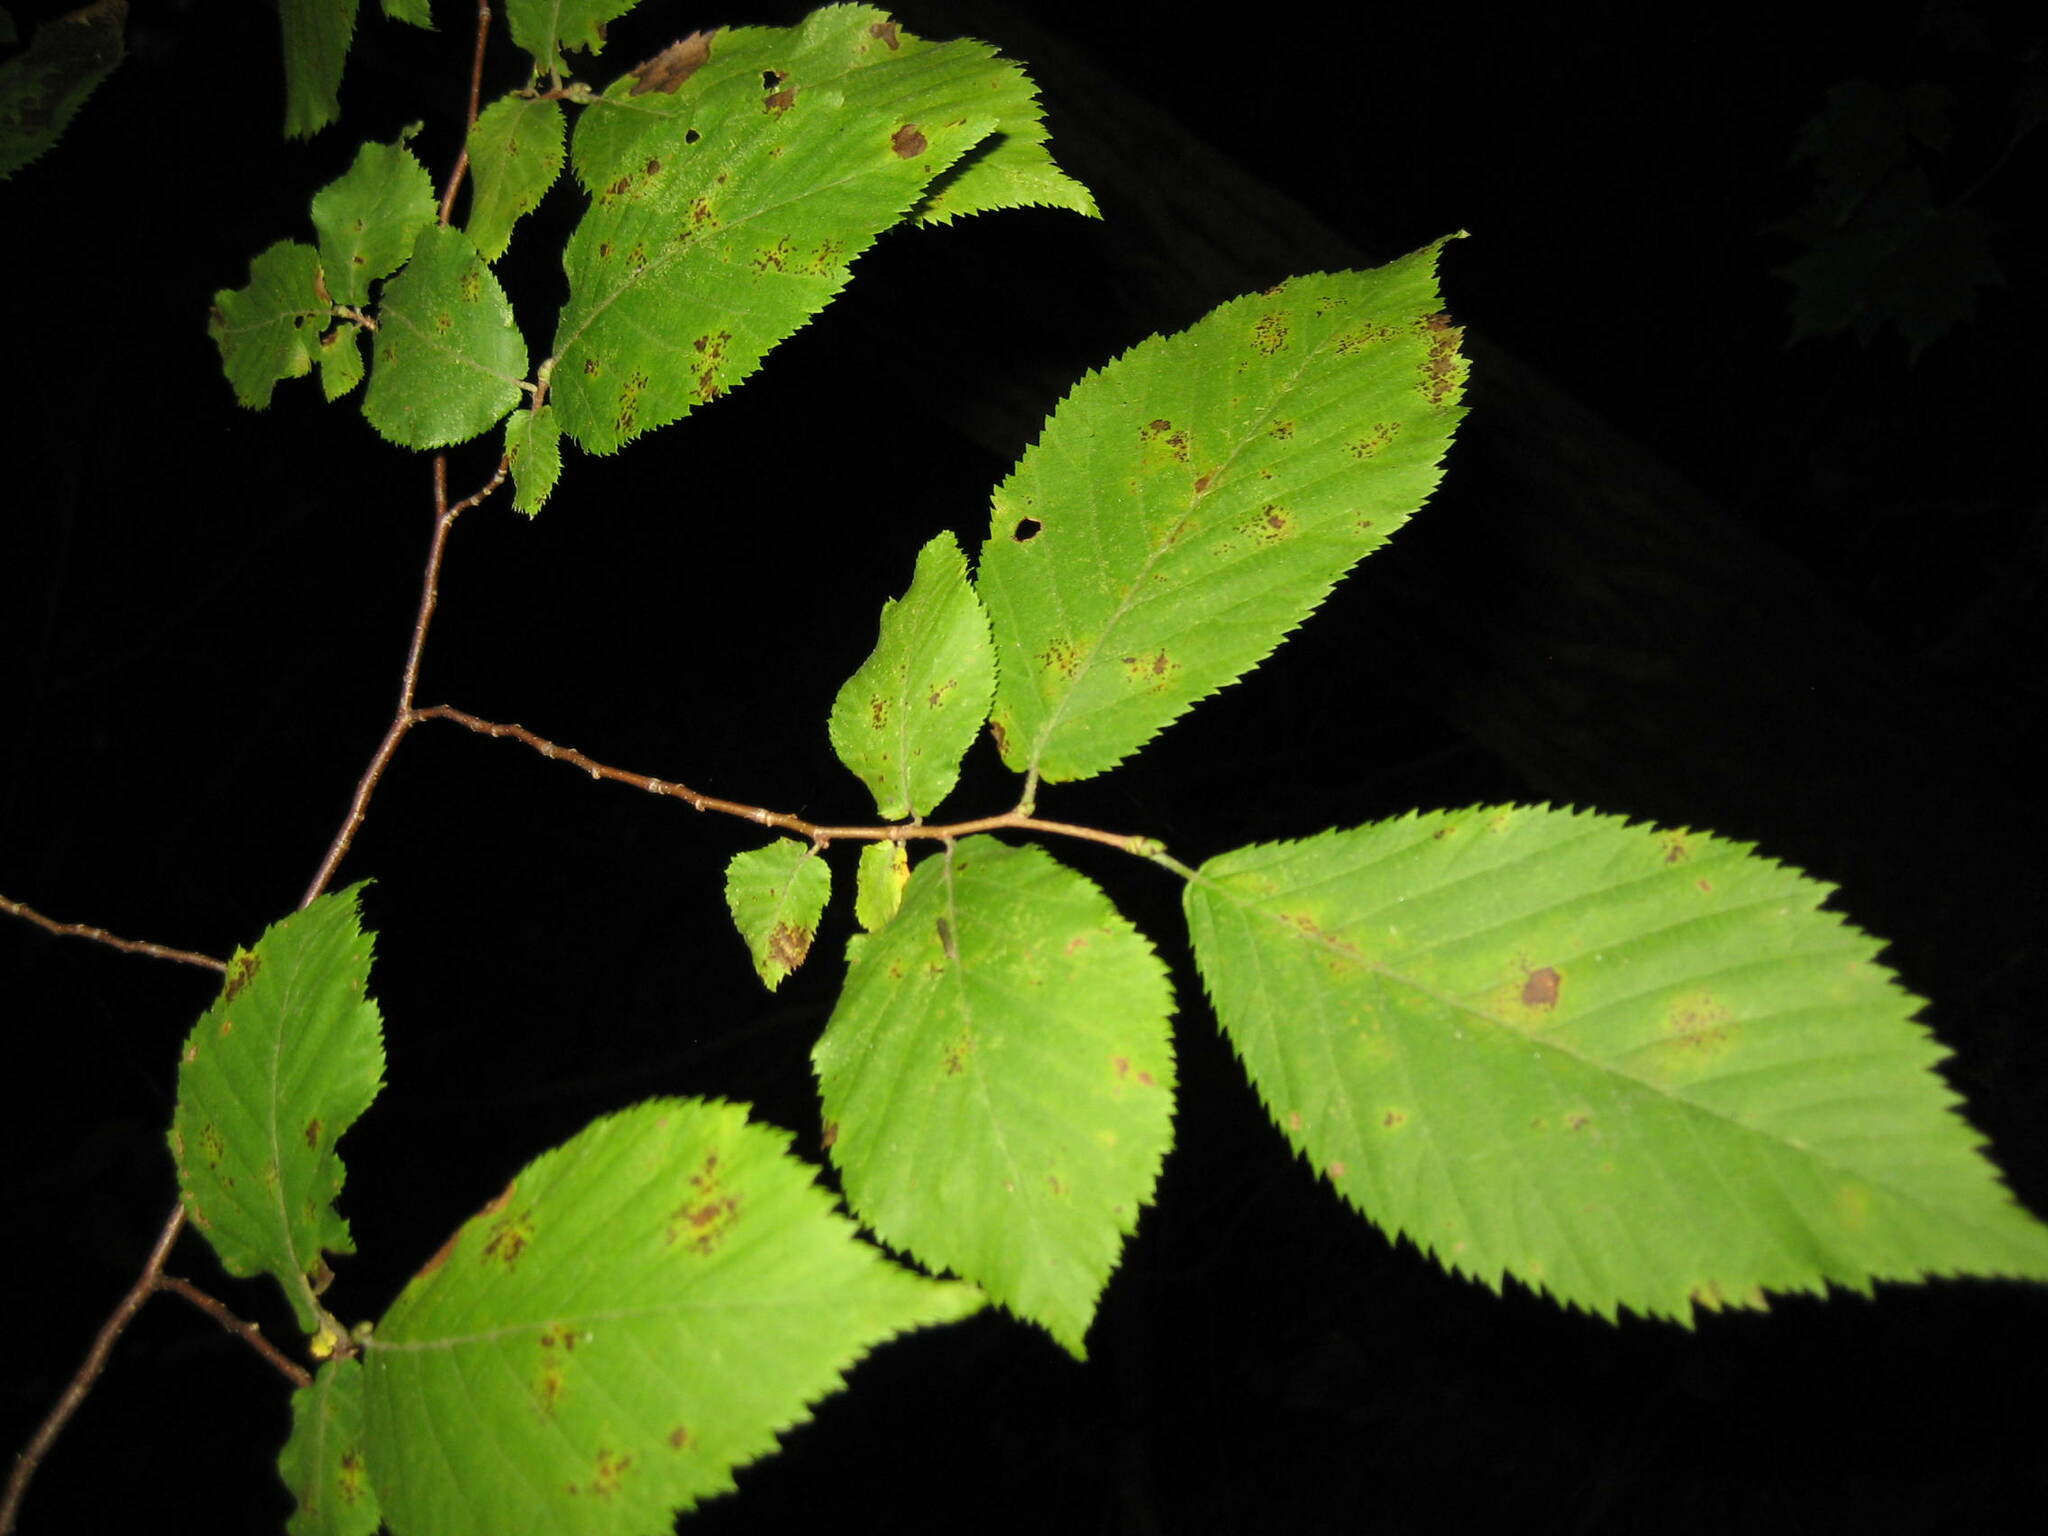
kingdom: Plantae
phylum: Tracheophyta
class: Magnoliopsida
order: Fagales
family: Betulaceae
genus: Ostrya
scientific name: Ostrya virginiana
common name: Ironwood
